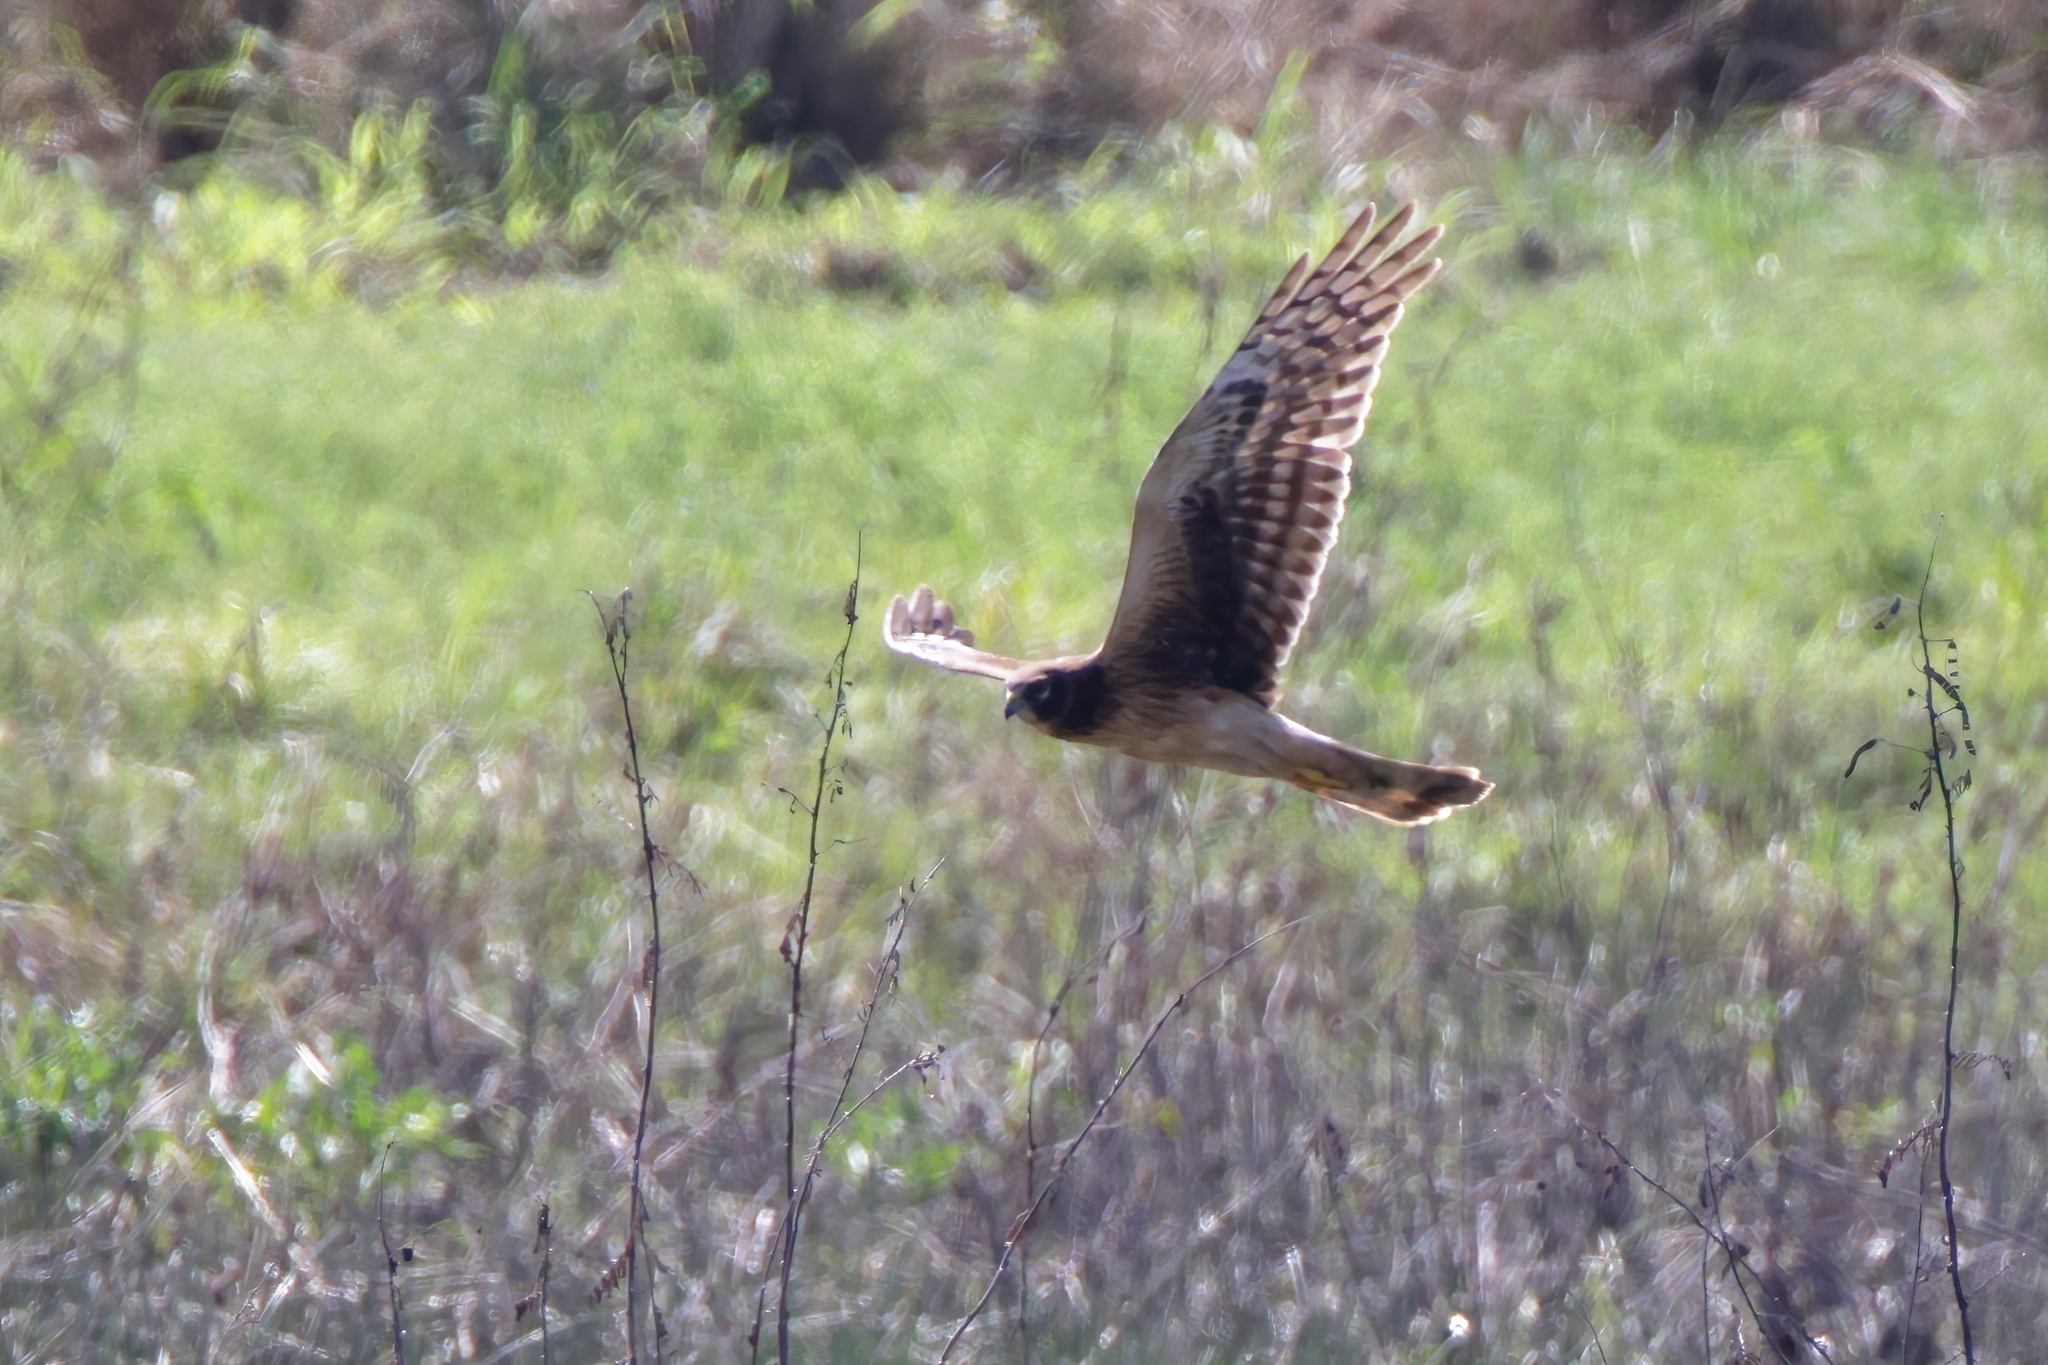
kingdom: Animalia
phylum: Chordata
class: Aves
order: Accipitriformes
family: Accipitridae
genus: Circus
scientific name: Circus cyaneus
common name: Hen harrier
